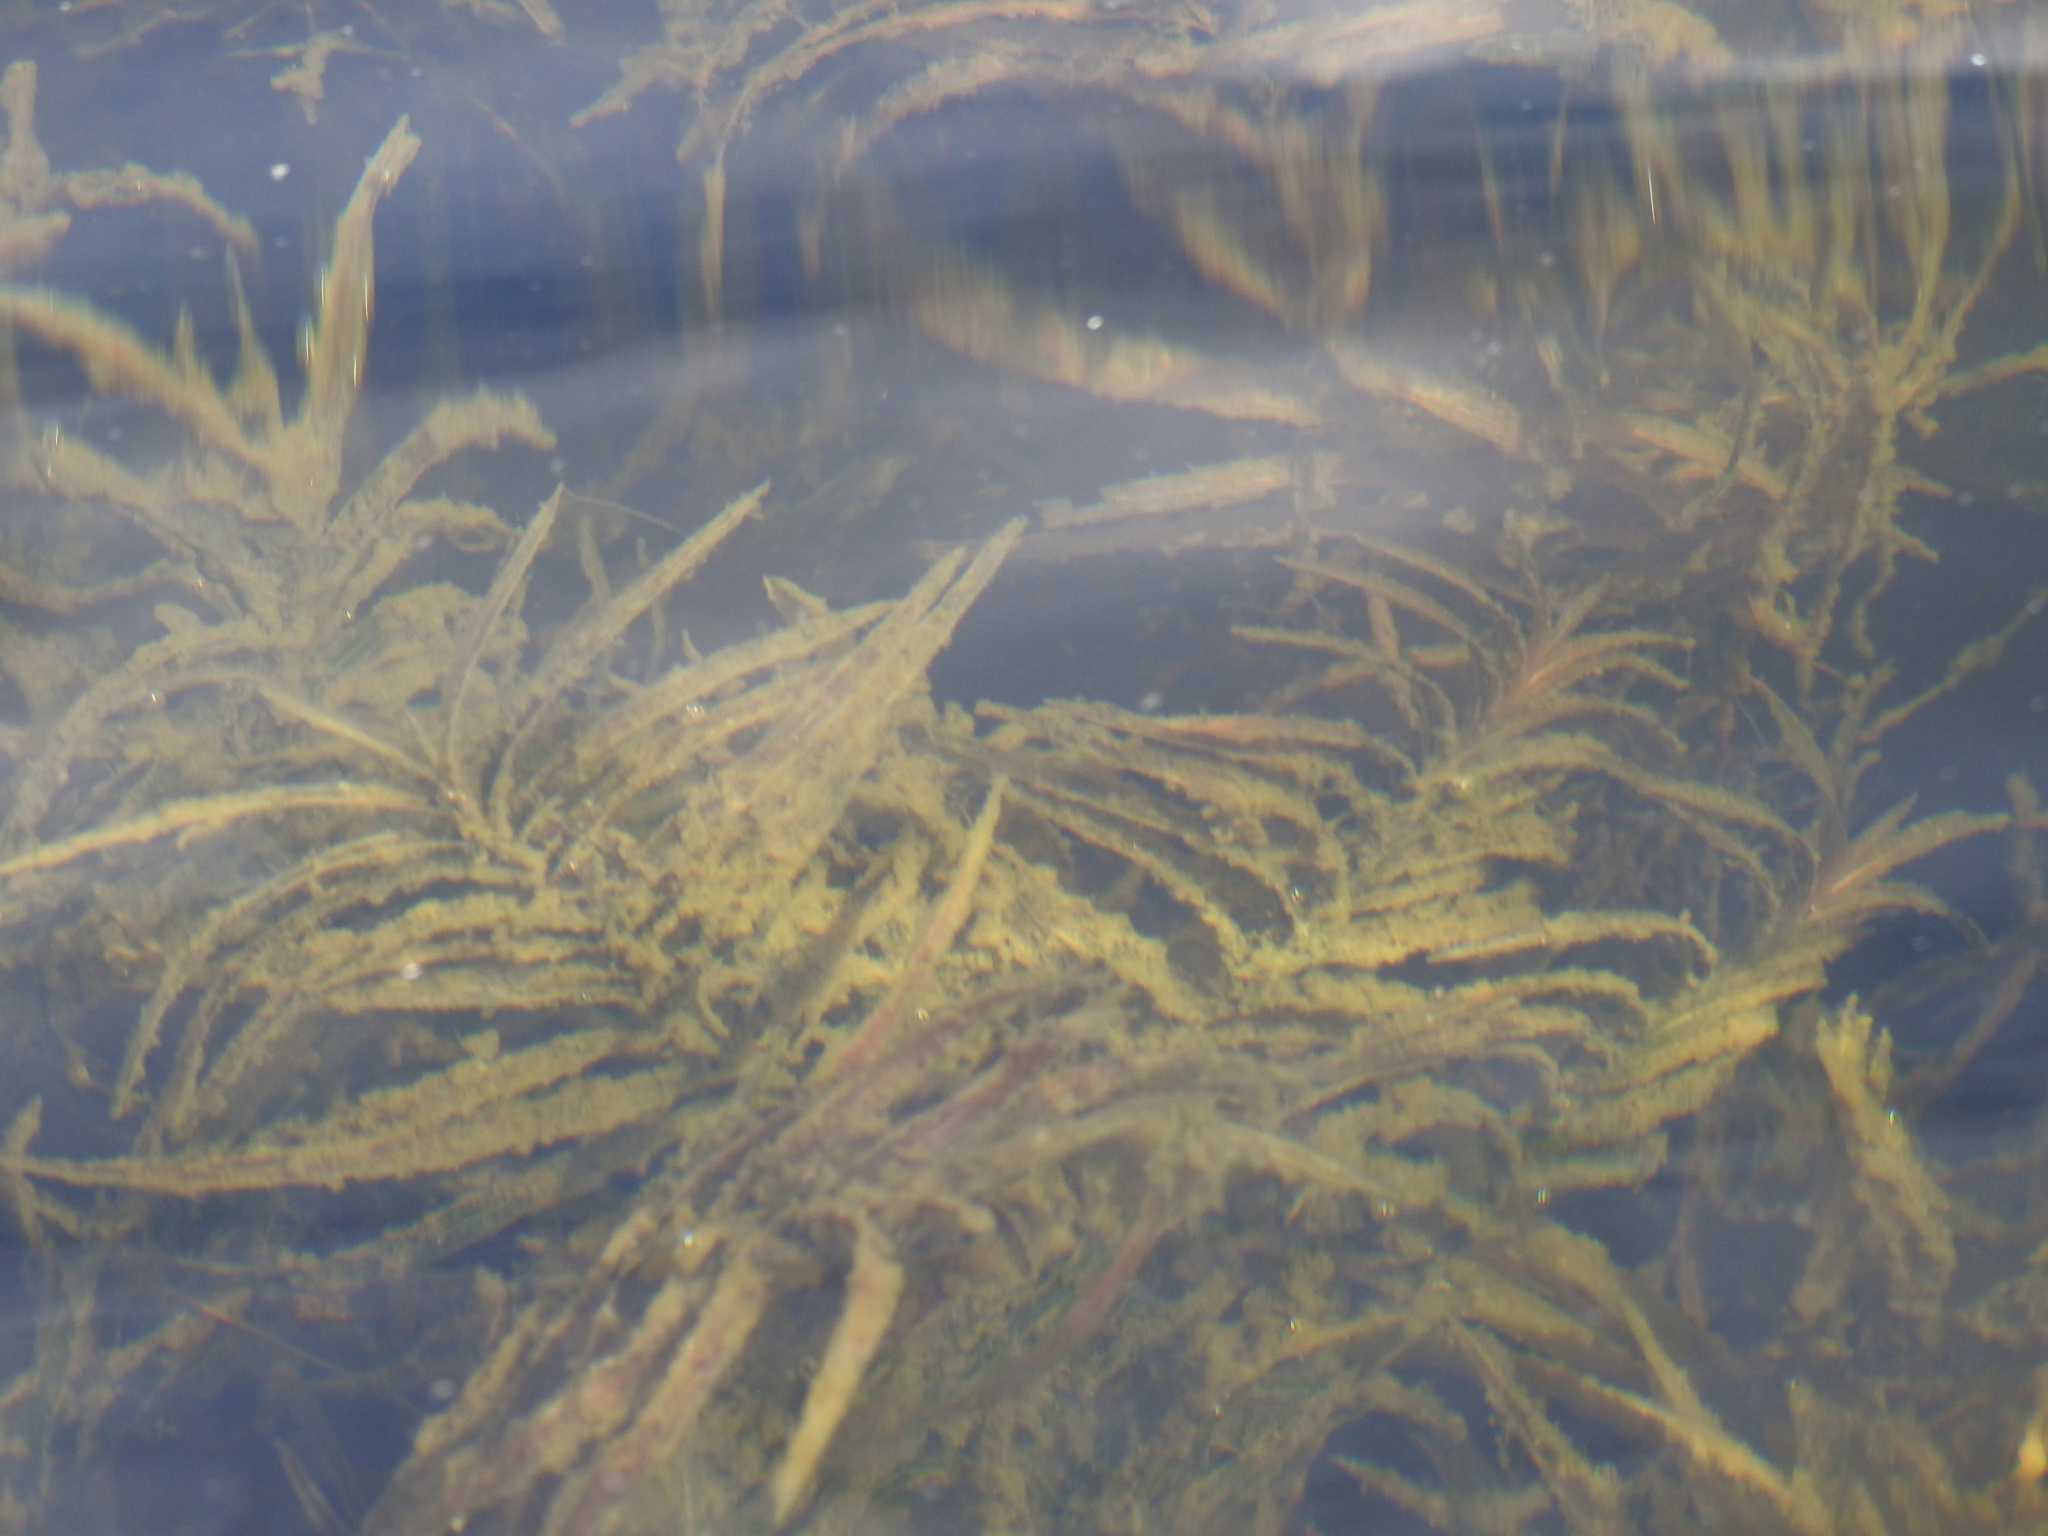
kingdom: Plantae
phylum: Tracheophyta
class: Liliopsida
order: Alismatales
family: Potamogetonaceae
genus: Potamogeton
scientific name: Potamogeton robbinsii
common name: Fern pondweed
